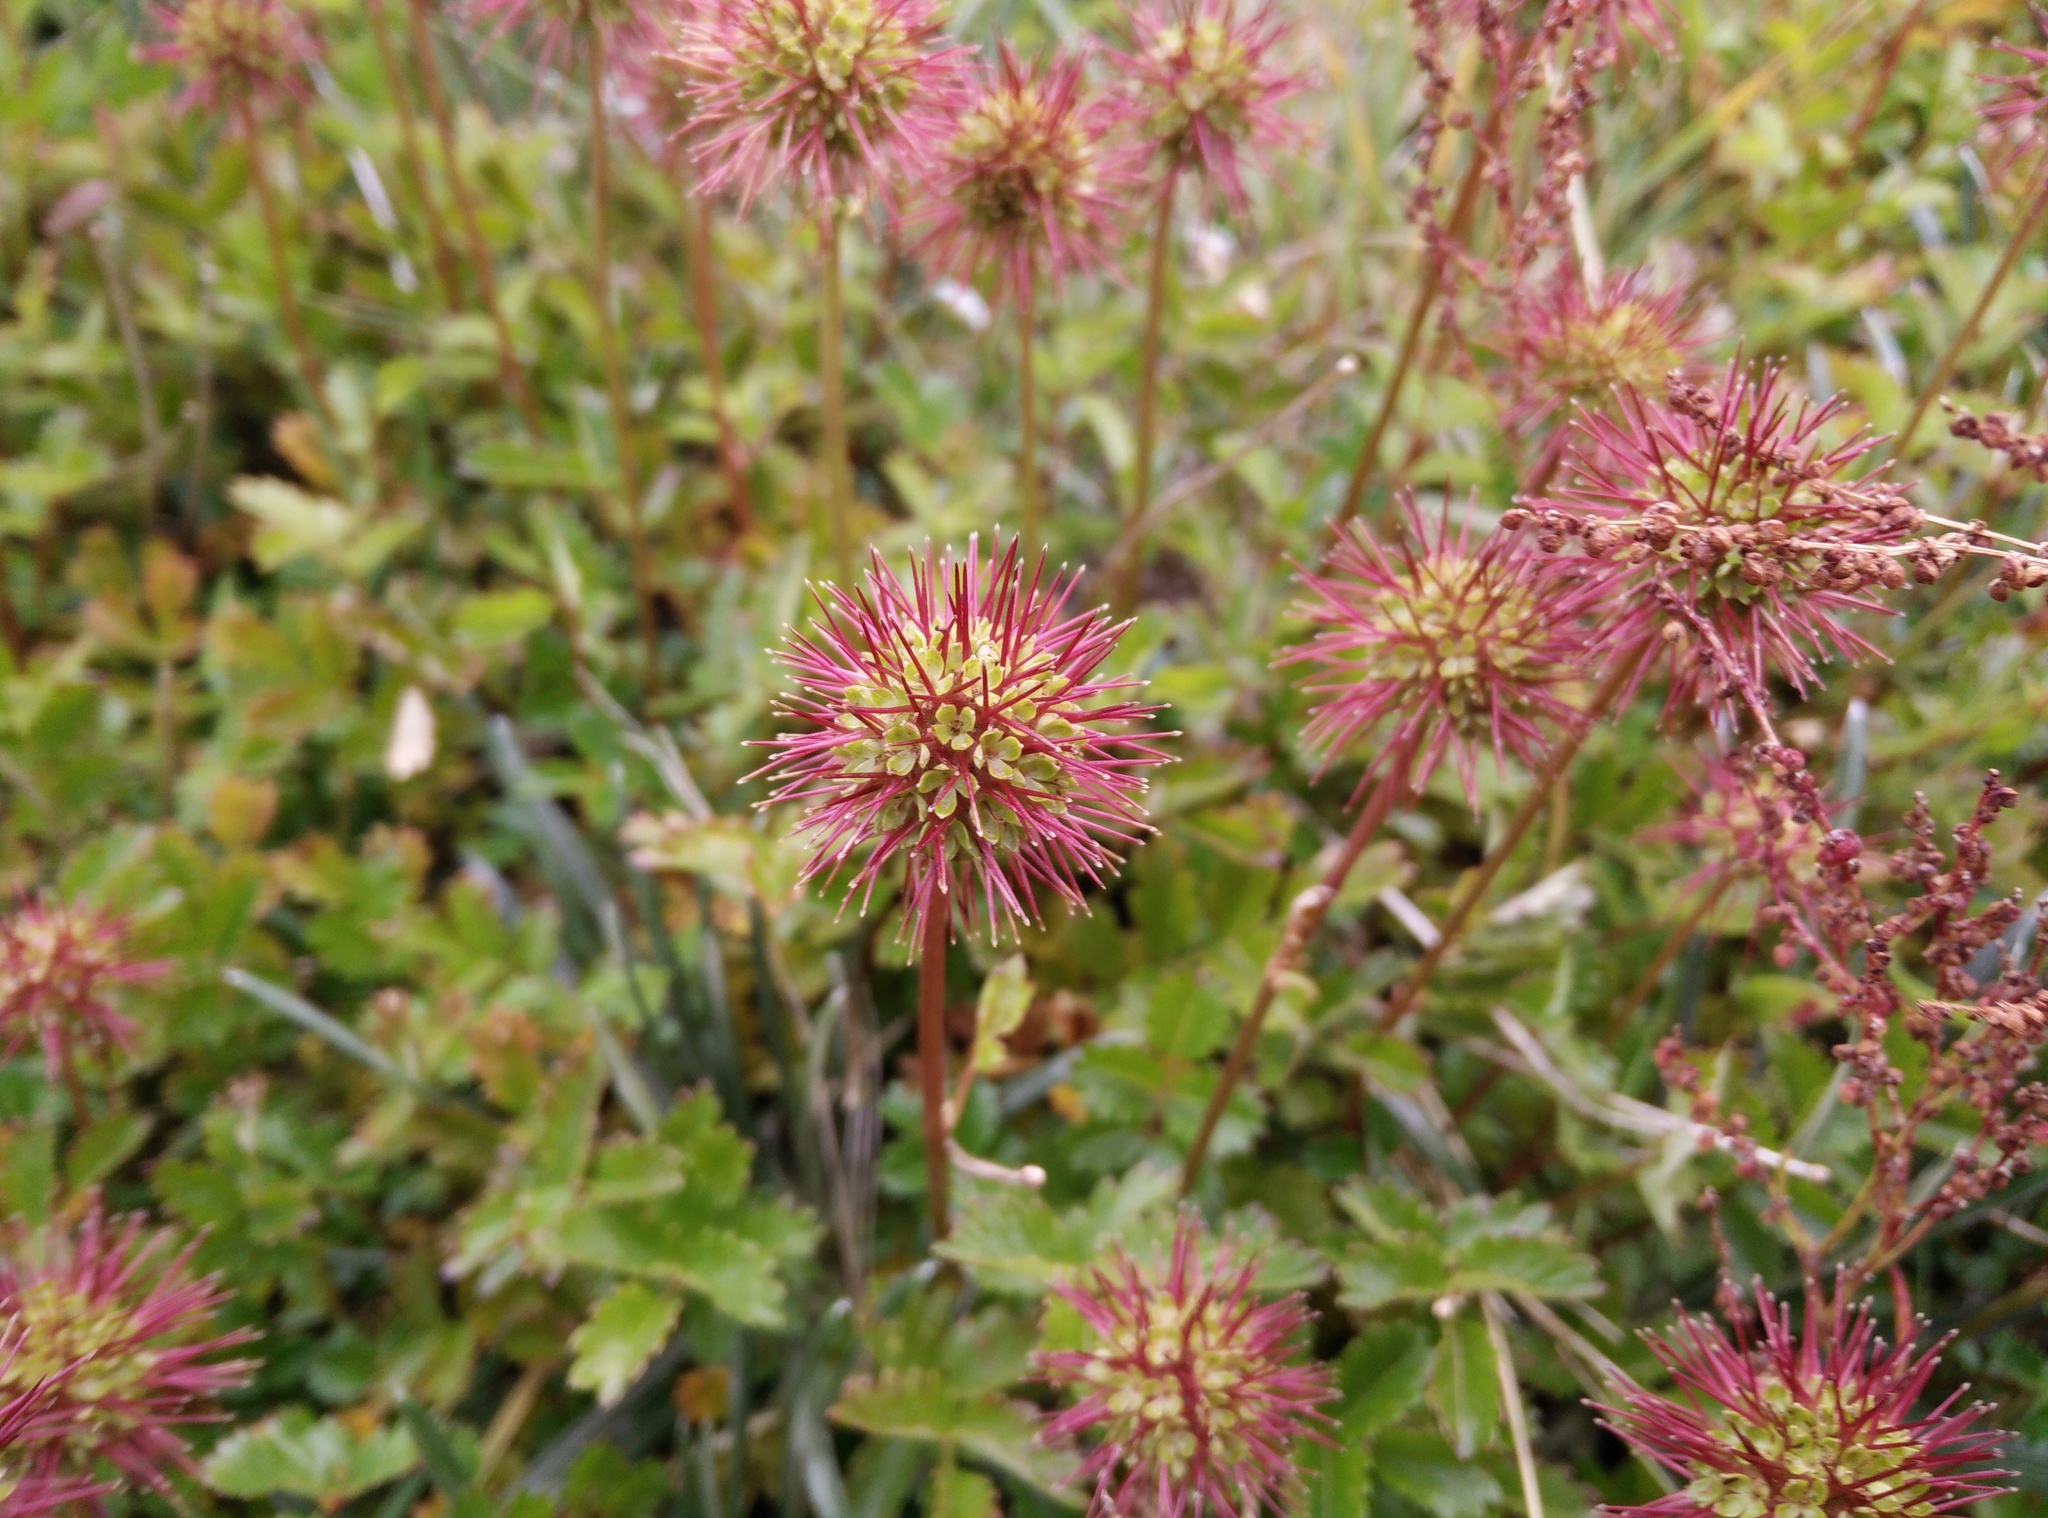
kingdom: Plantae
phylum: Tracheophyta
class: Magnoliopsida
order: Rosales
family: Rosaceae
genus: Acaena
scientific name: Acaena novae-zelandiae
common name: Pirri-pirri-bur
